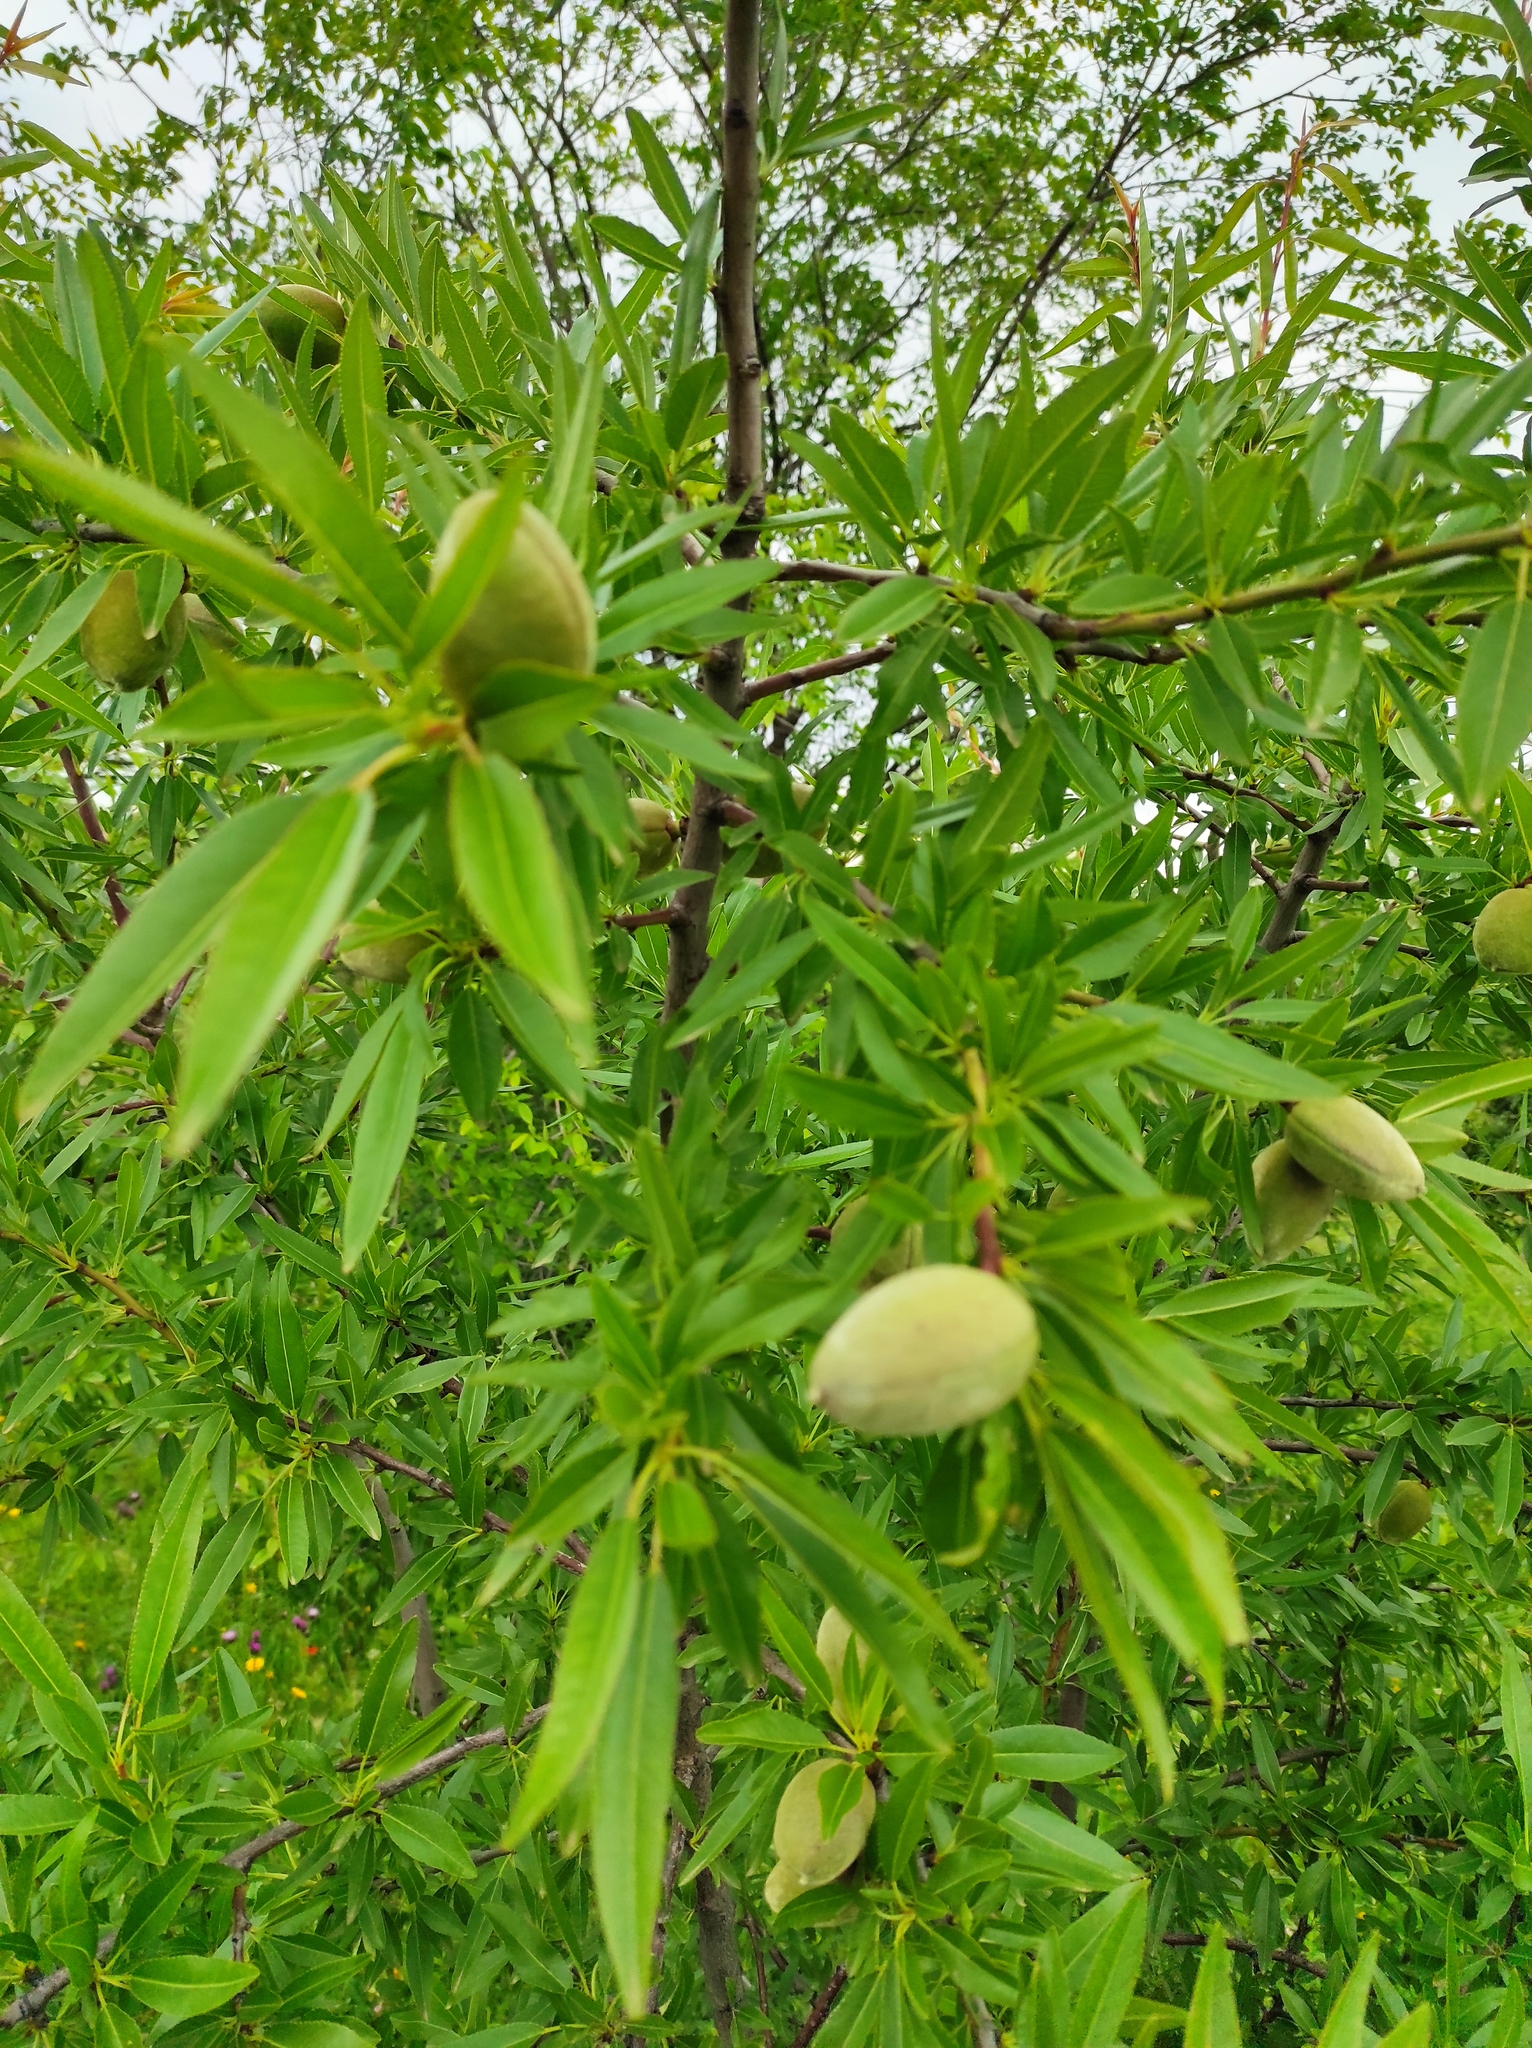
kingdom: Plantae
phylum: Tracheophyta
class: Magnoliopsida
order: Rosales
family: Rosaceae
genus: Prunus
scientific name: Prunus amygdalus
